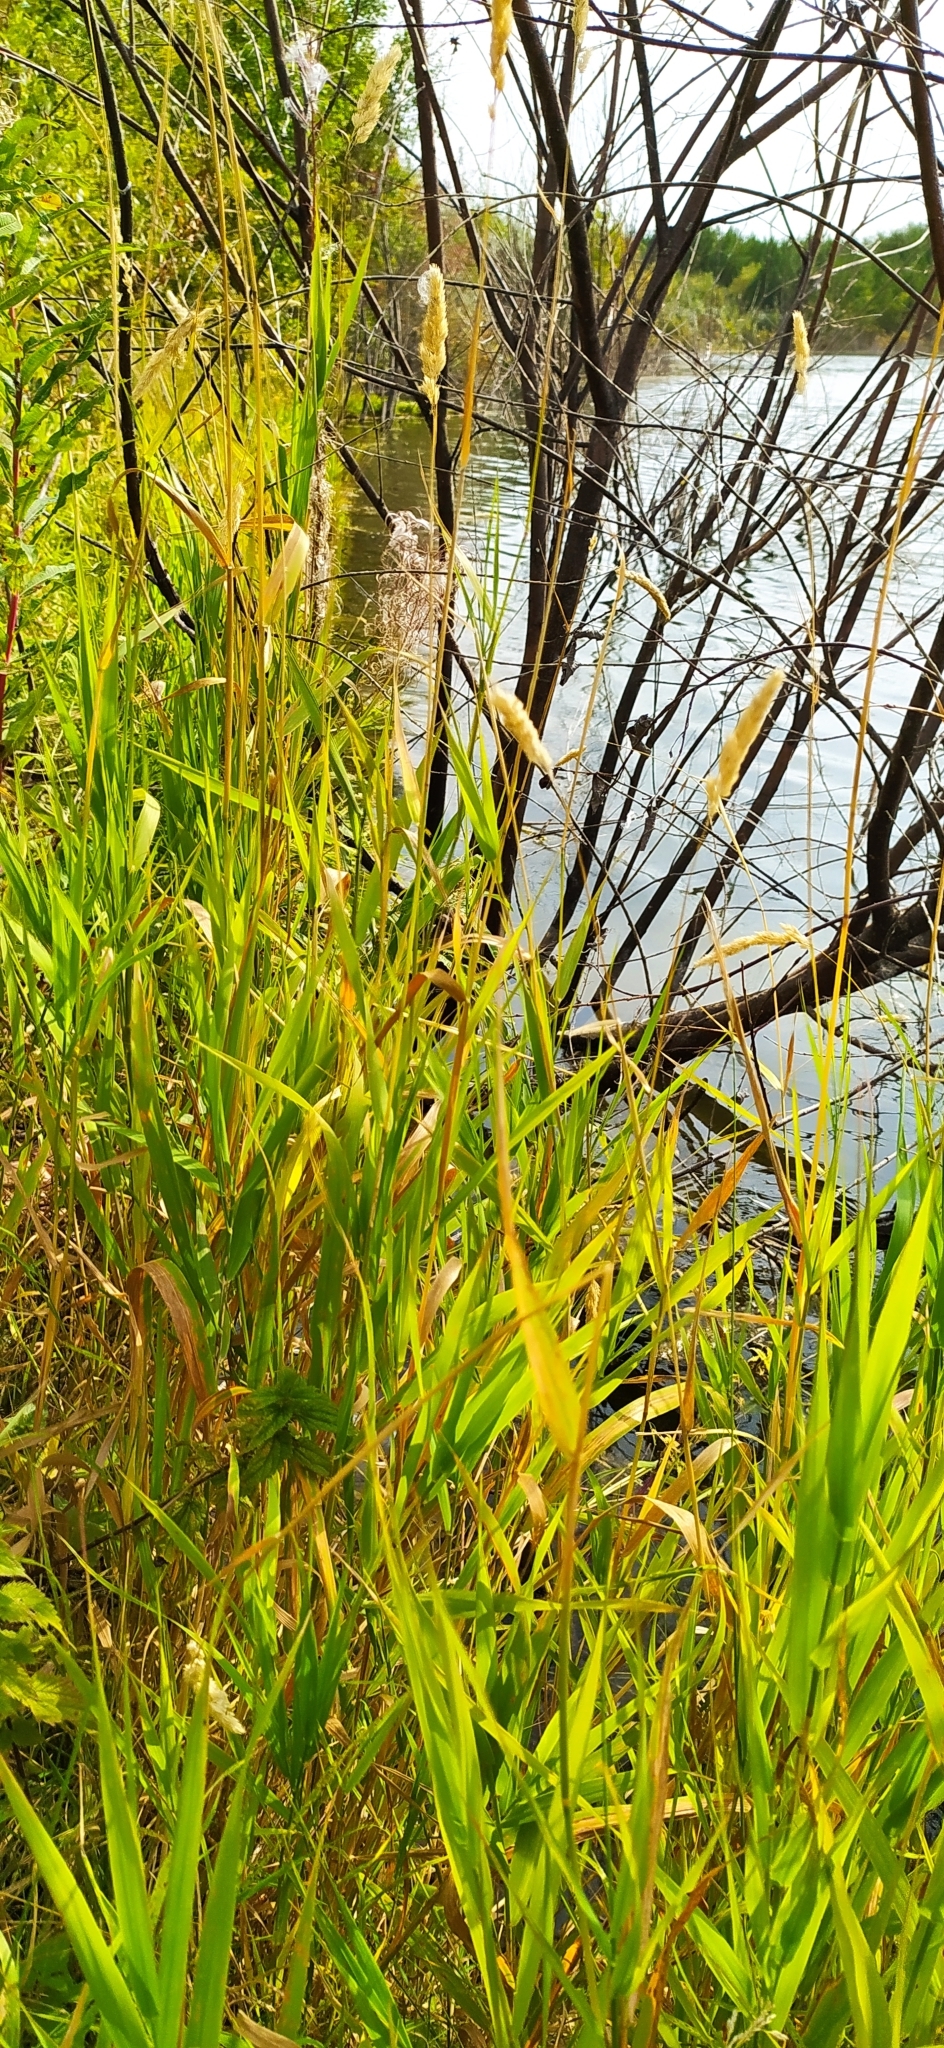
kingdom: Plantae
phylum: Tracheophyta
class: Liliopsida
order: Poales
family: Poaceae
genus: Phalaris
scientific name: Phalaris arundinacea
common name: Reed canary-grass
